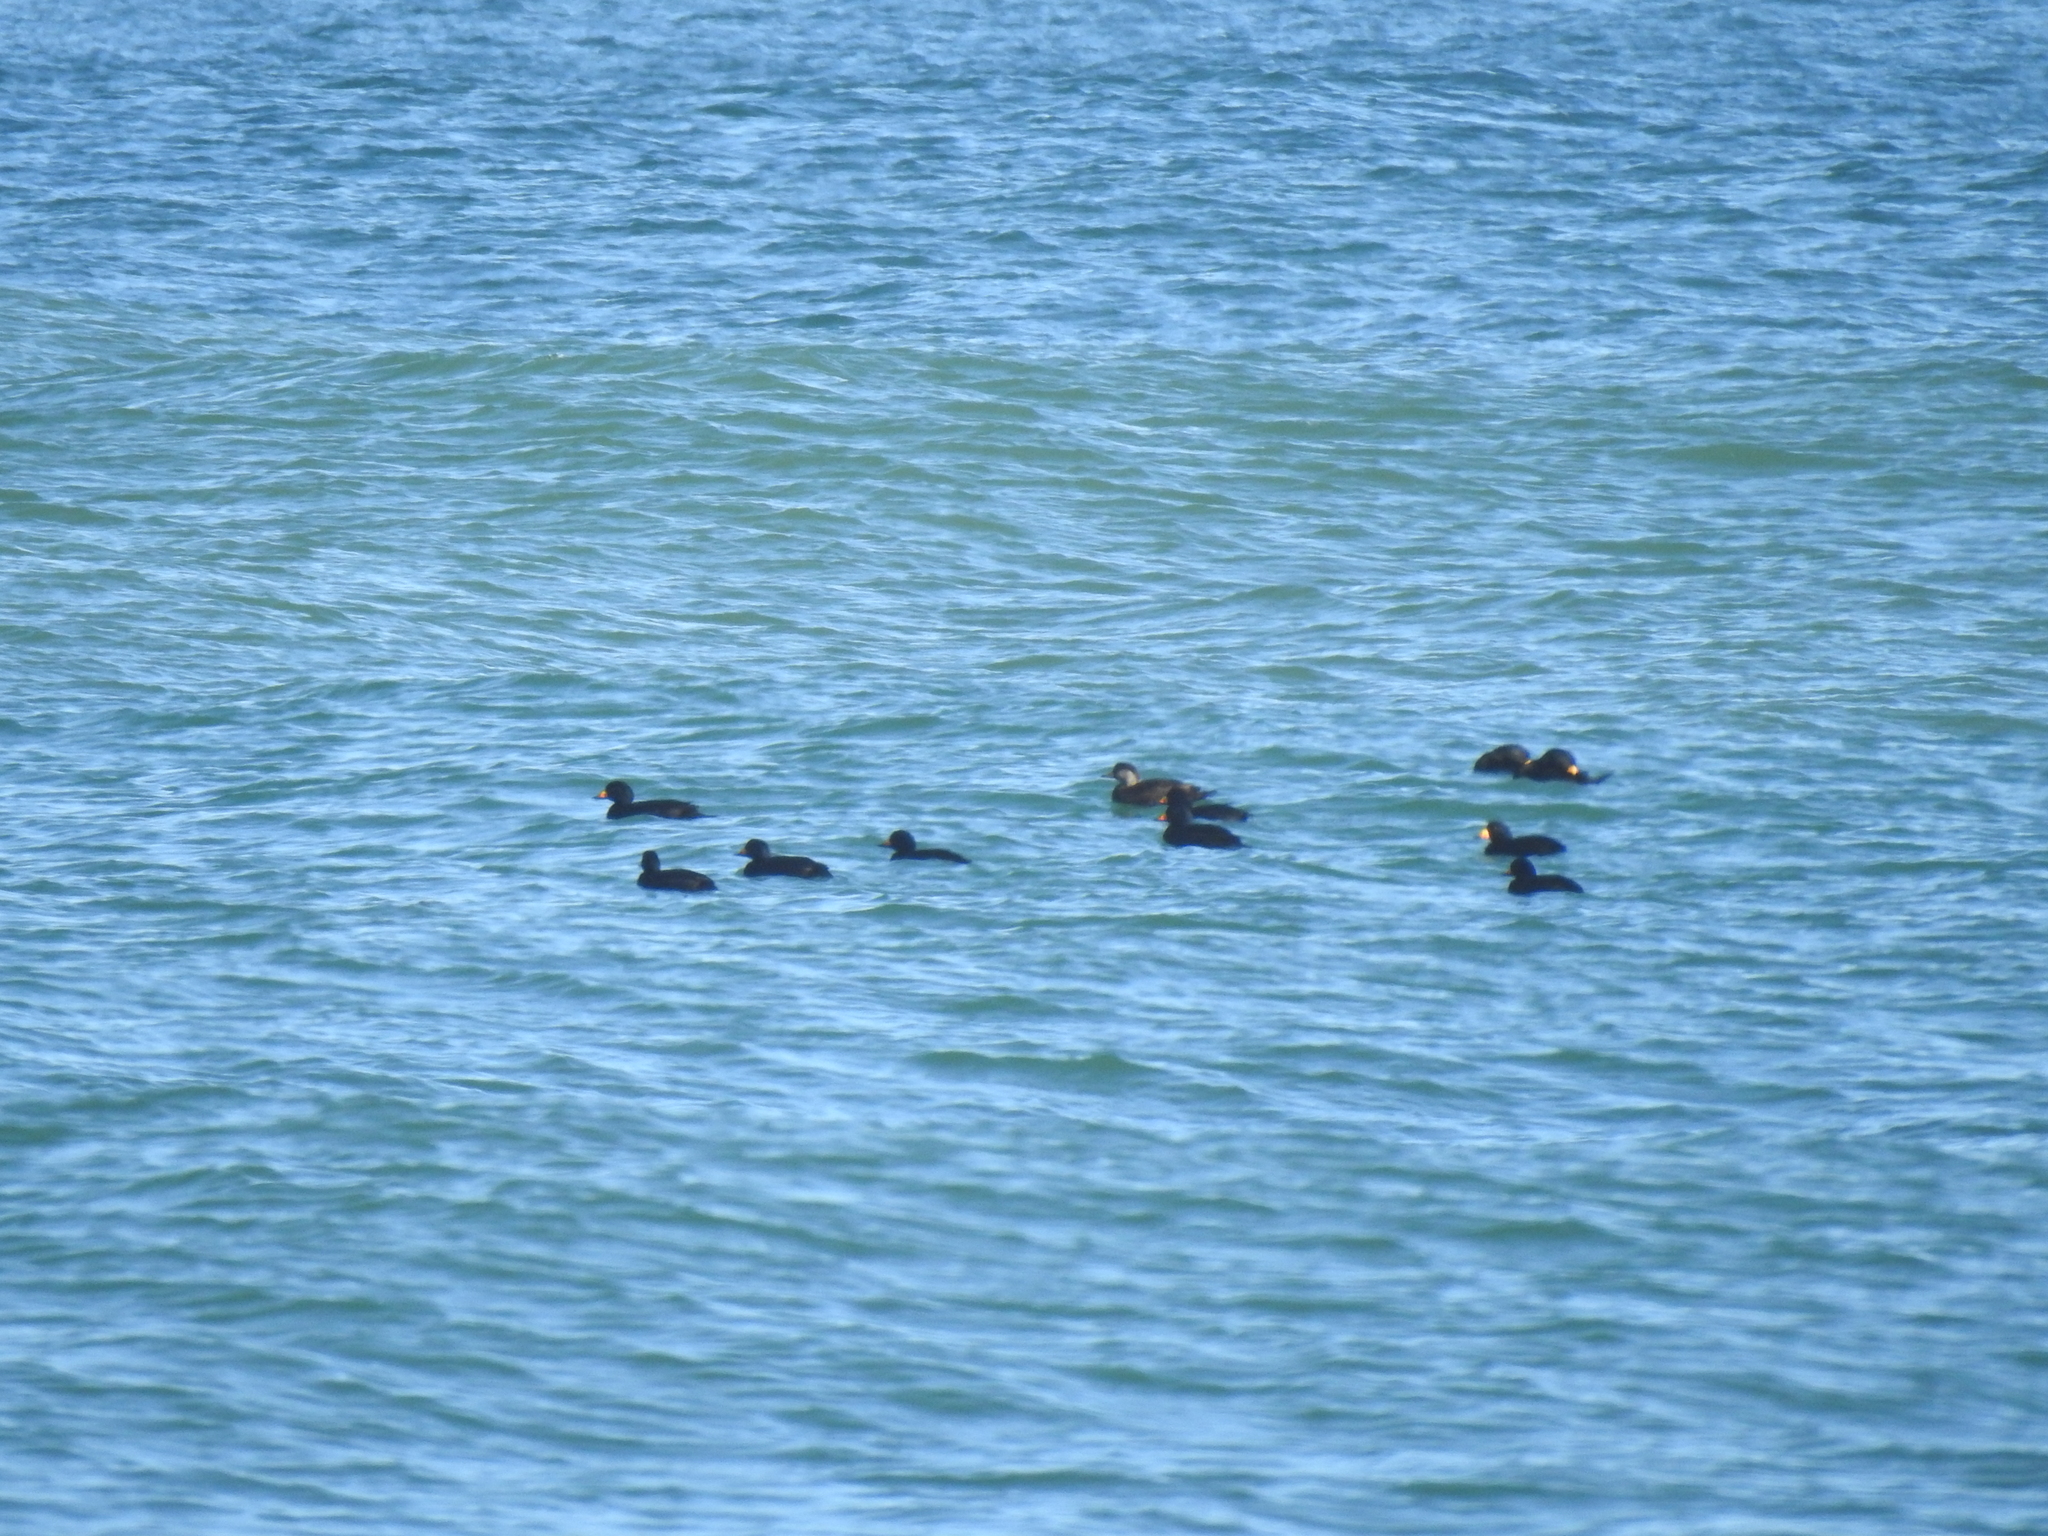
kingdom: Animalia
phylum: Chordata
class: Aves
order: Anseriformes
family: Anatidae
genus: Melanitta
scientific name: Melanitta americana
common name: Black scoter
